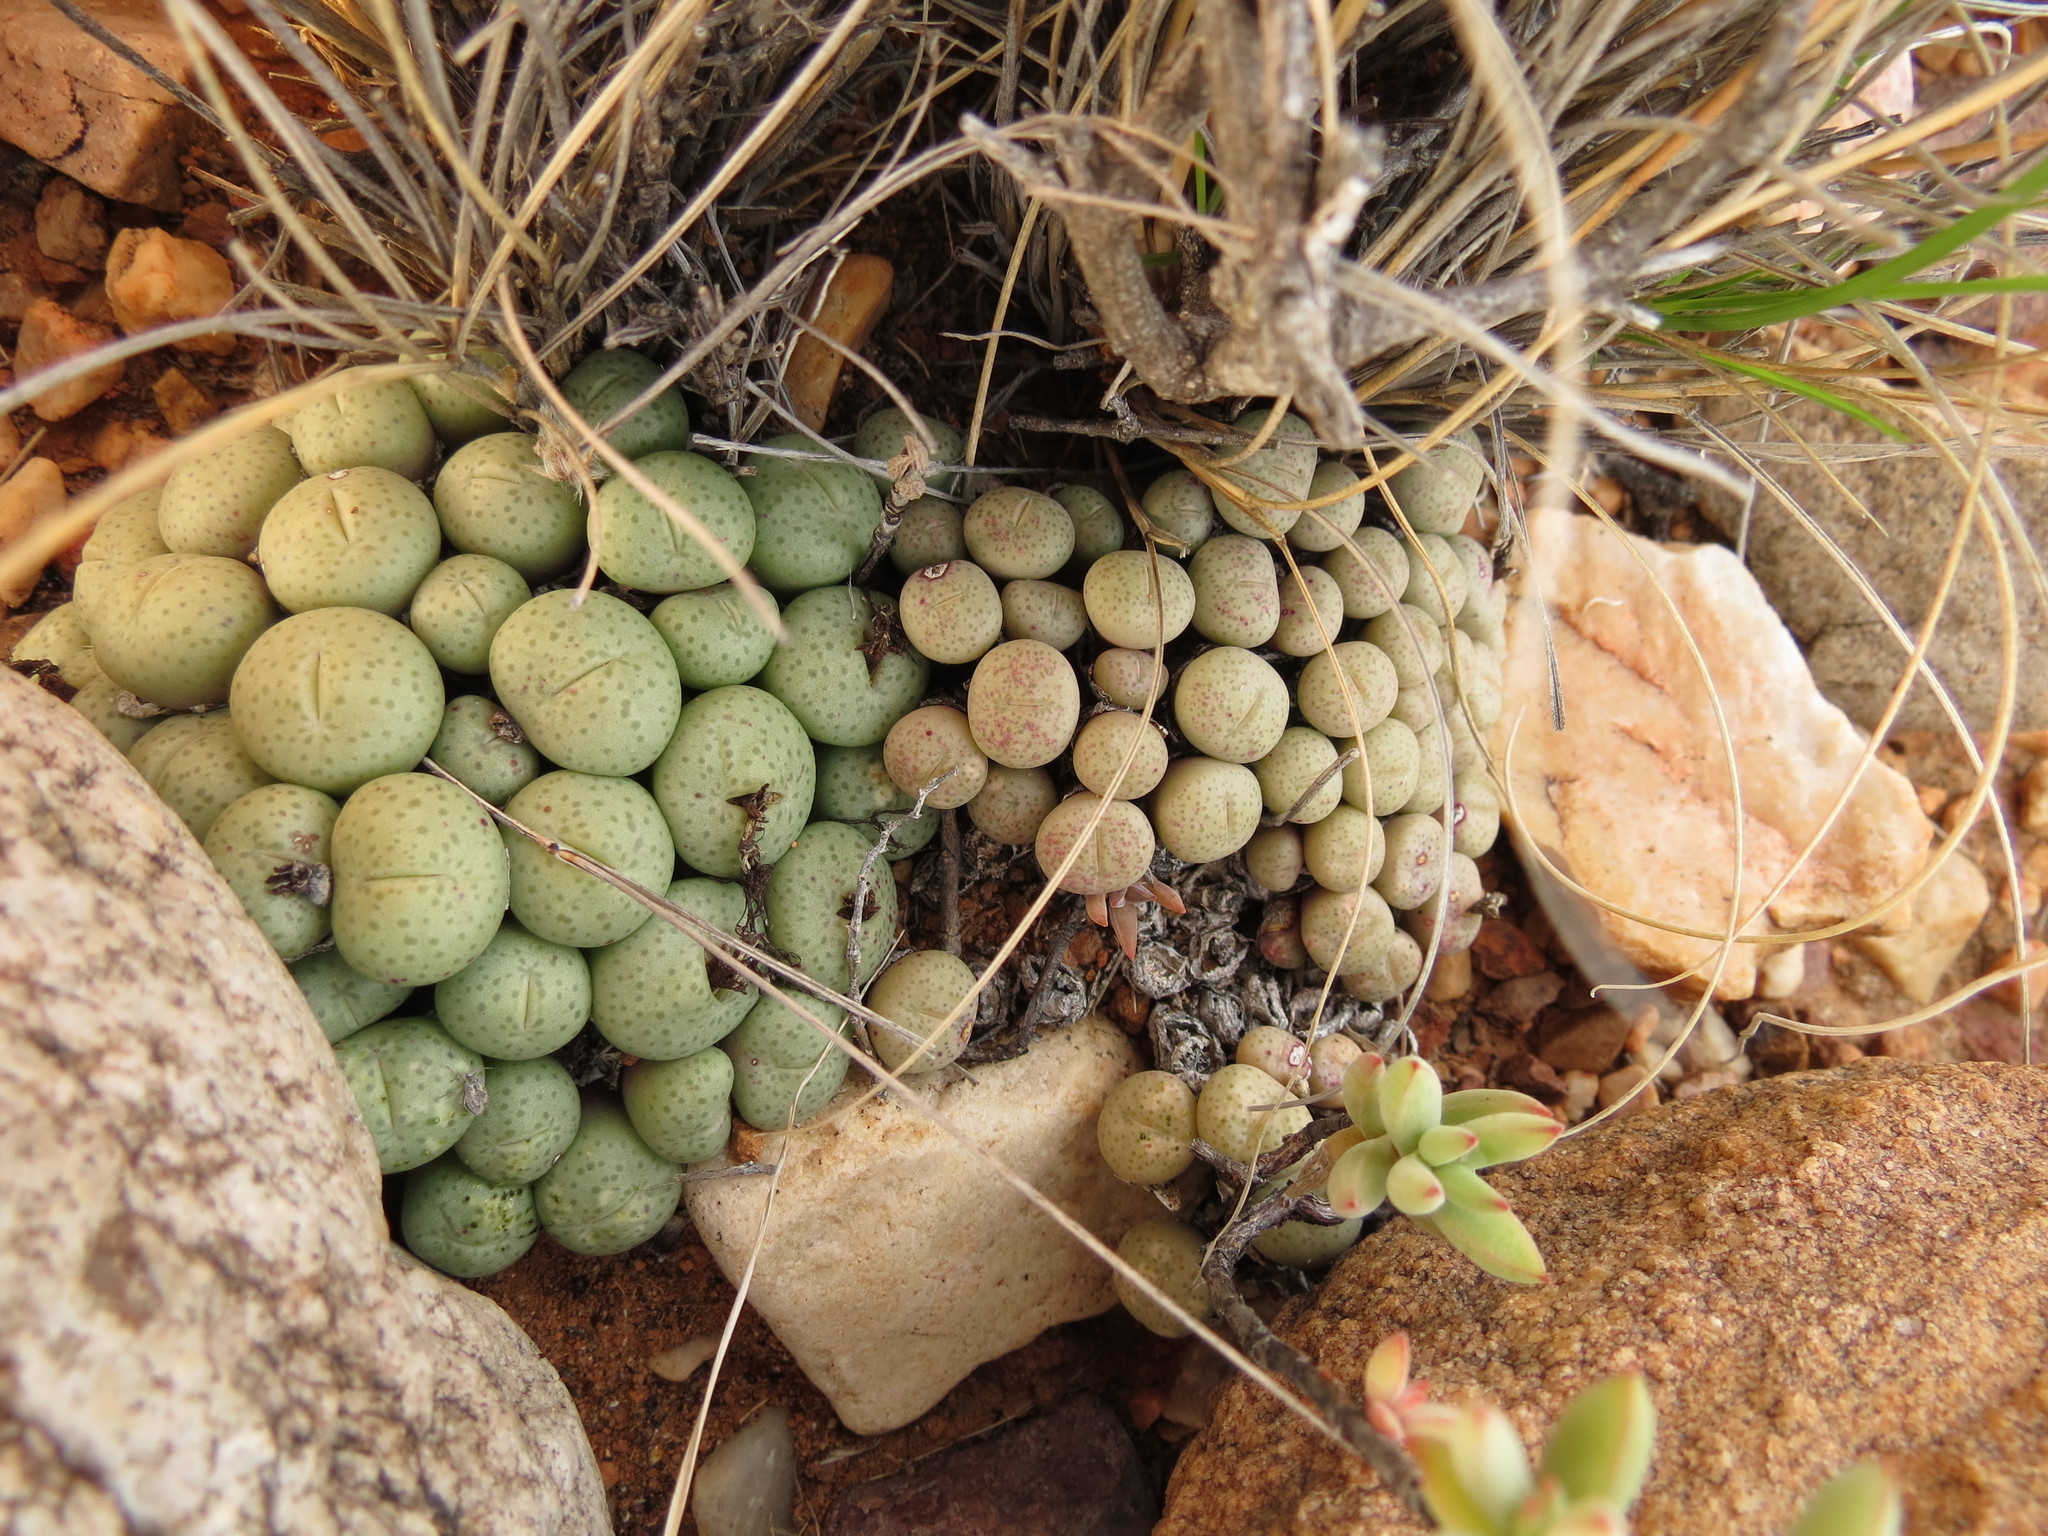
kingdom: Plantae
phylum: Tracheophyta
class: Magnoliopsida
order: Caryophyllales
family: Aizoaceae
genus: Conophytum
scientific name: Conophytum truncatum
